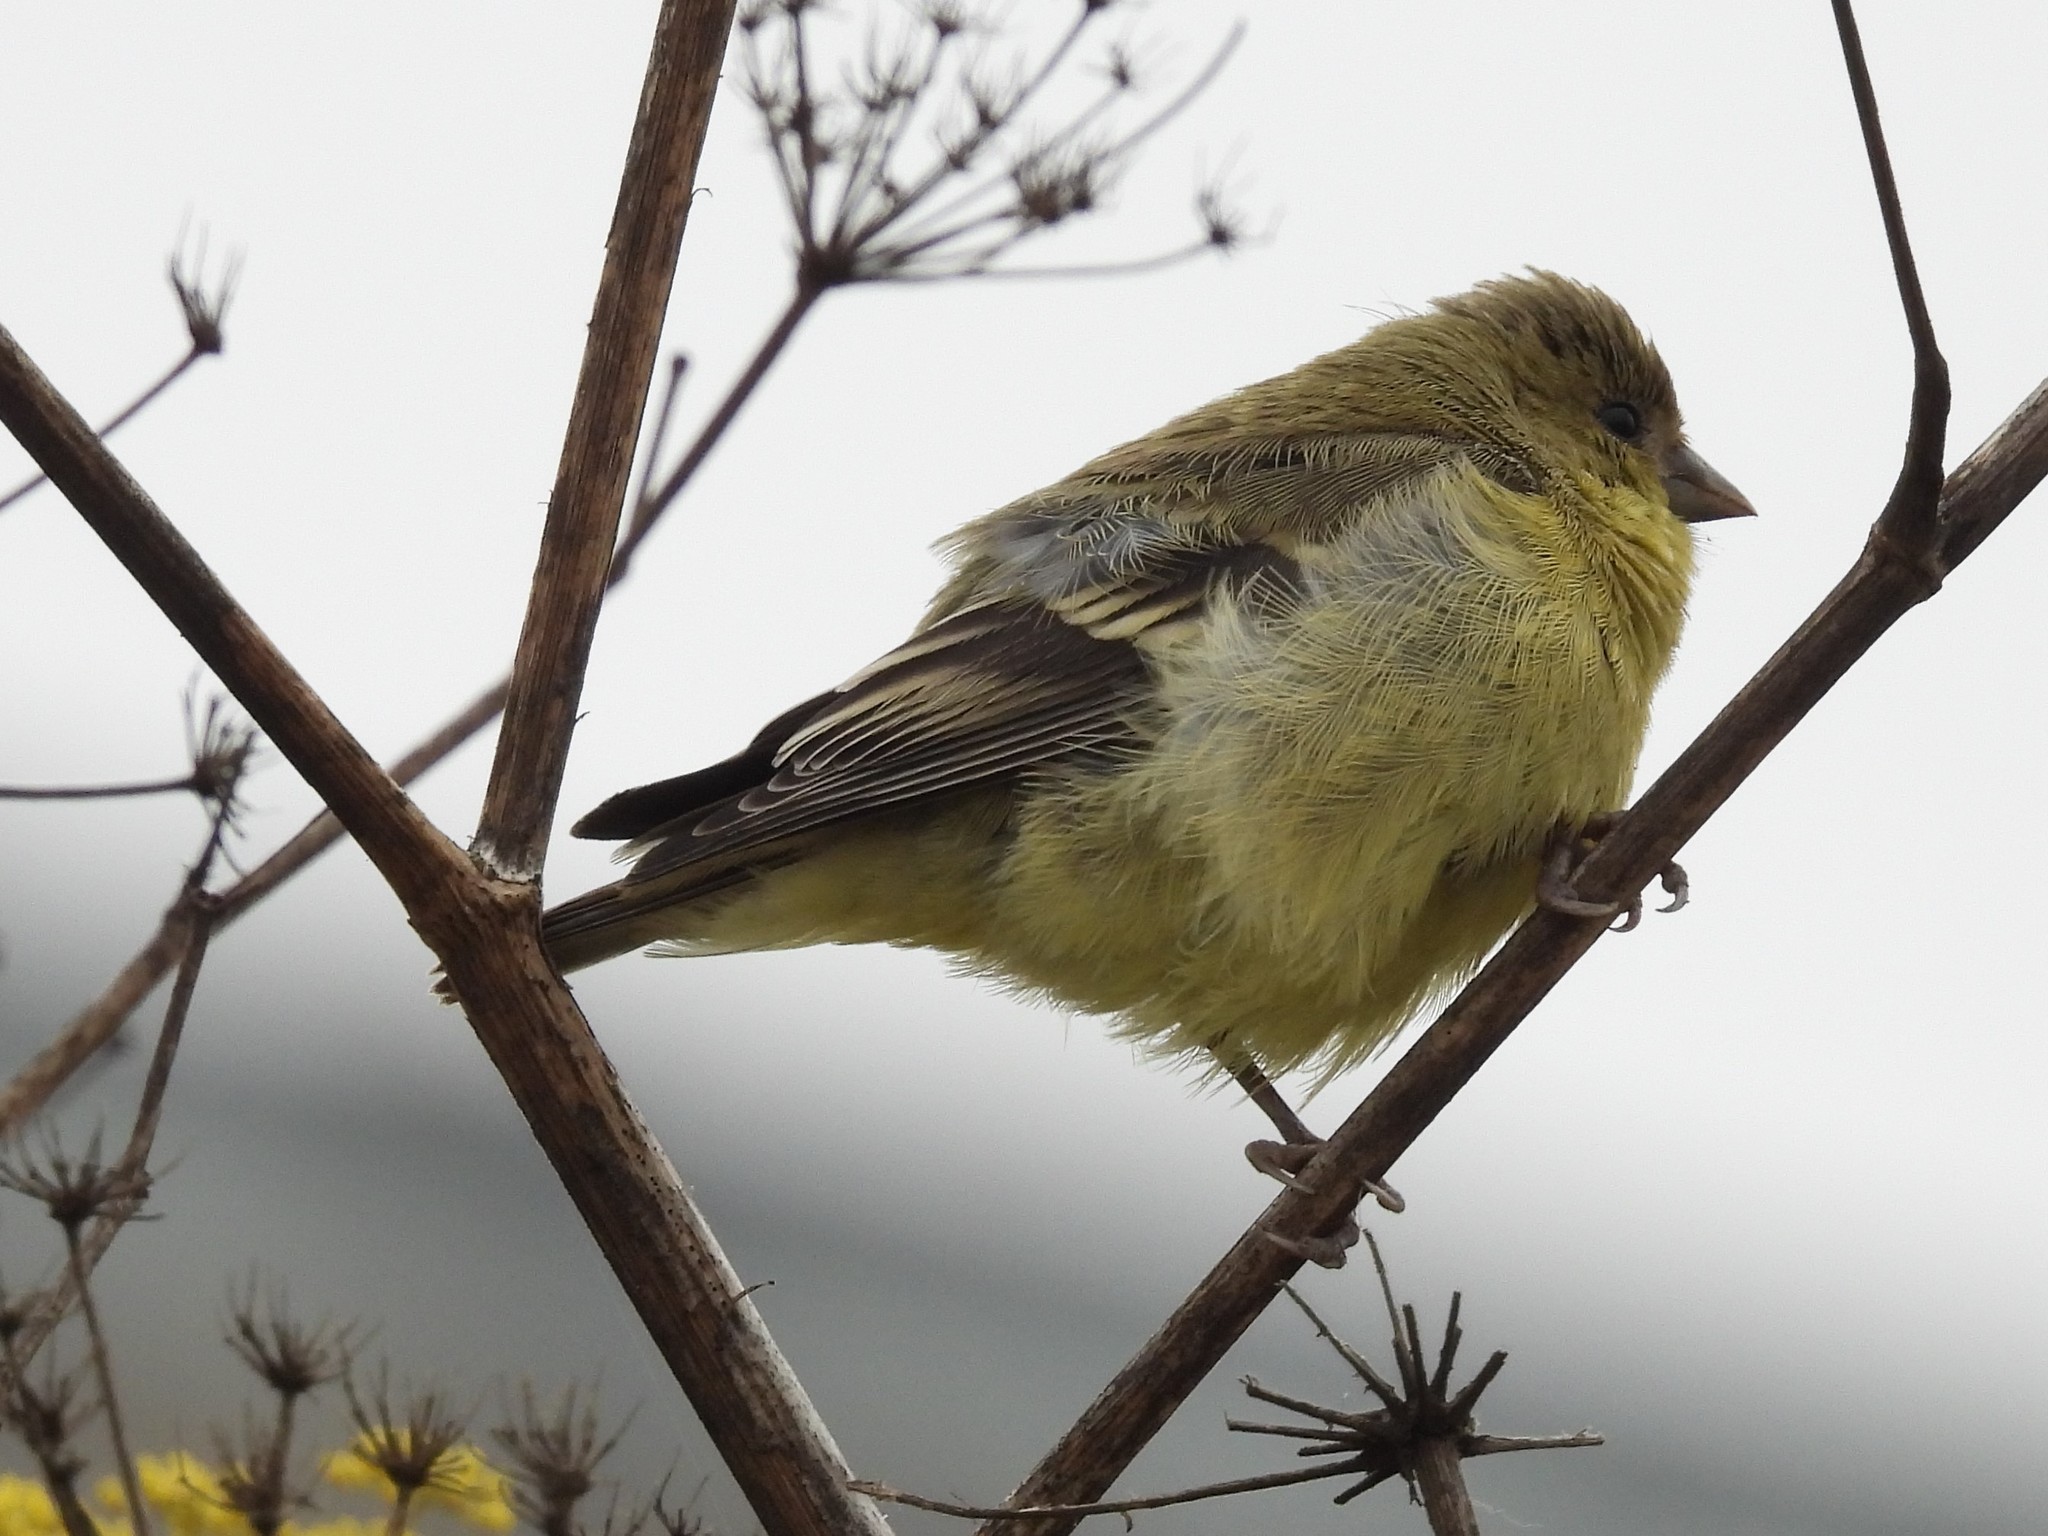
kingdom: Animalia
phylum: Chordata
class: Aves
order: Passeriformes
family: Fringillidae
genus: Spinus
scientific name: Spinus psaltria
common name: Lesser goldfinch
